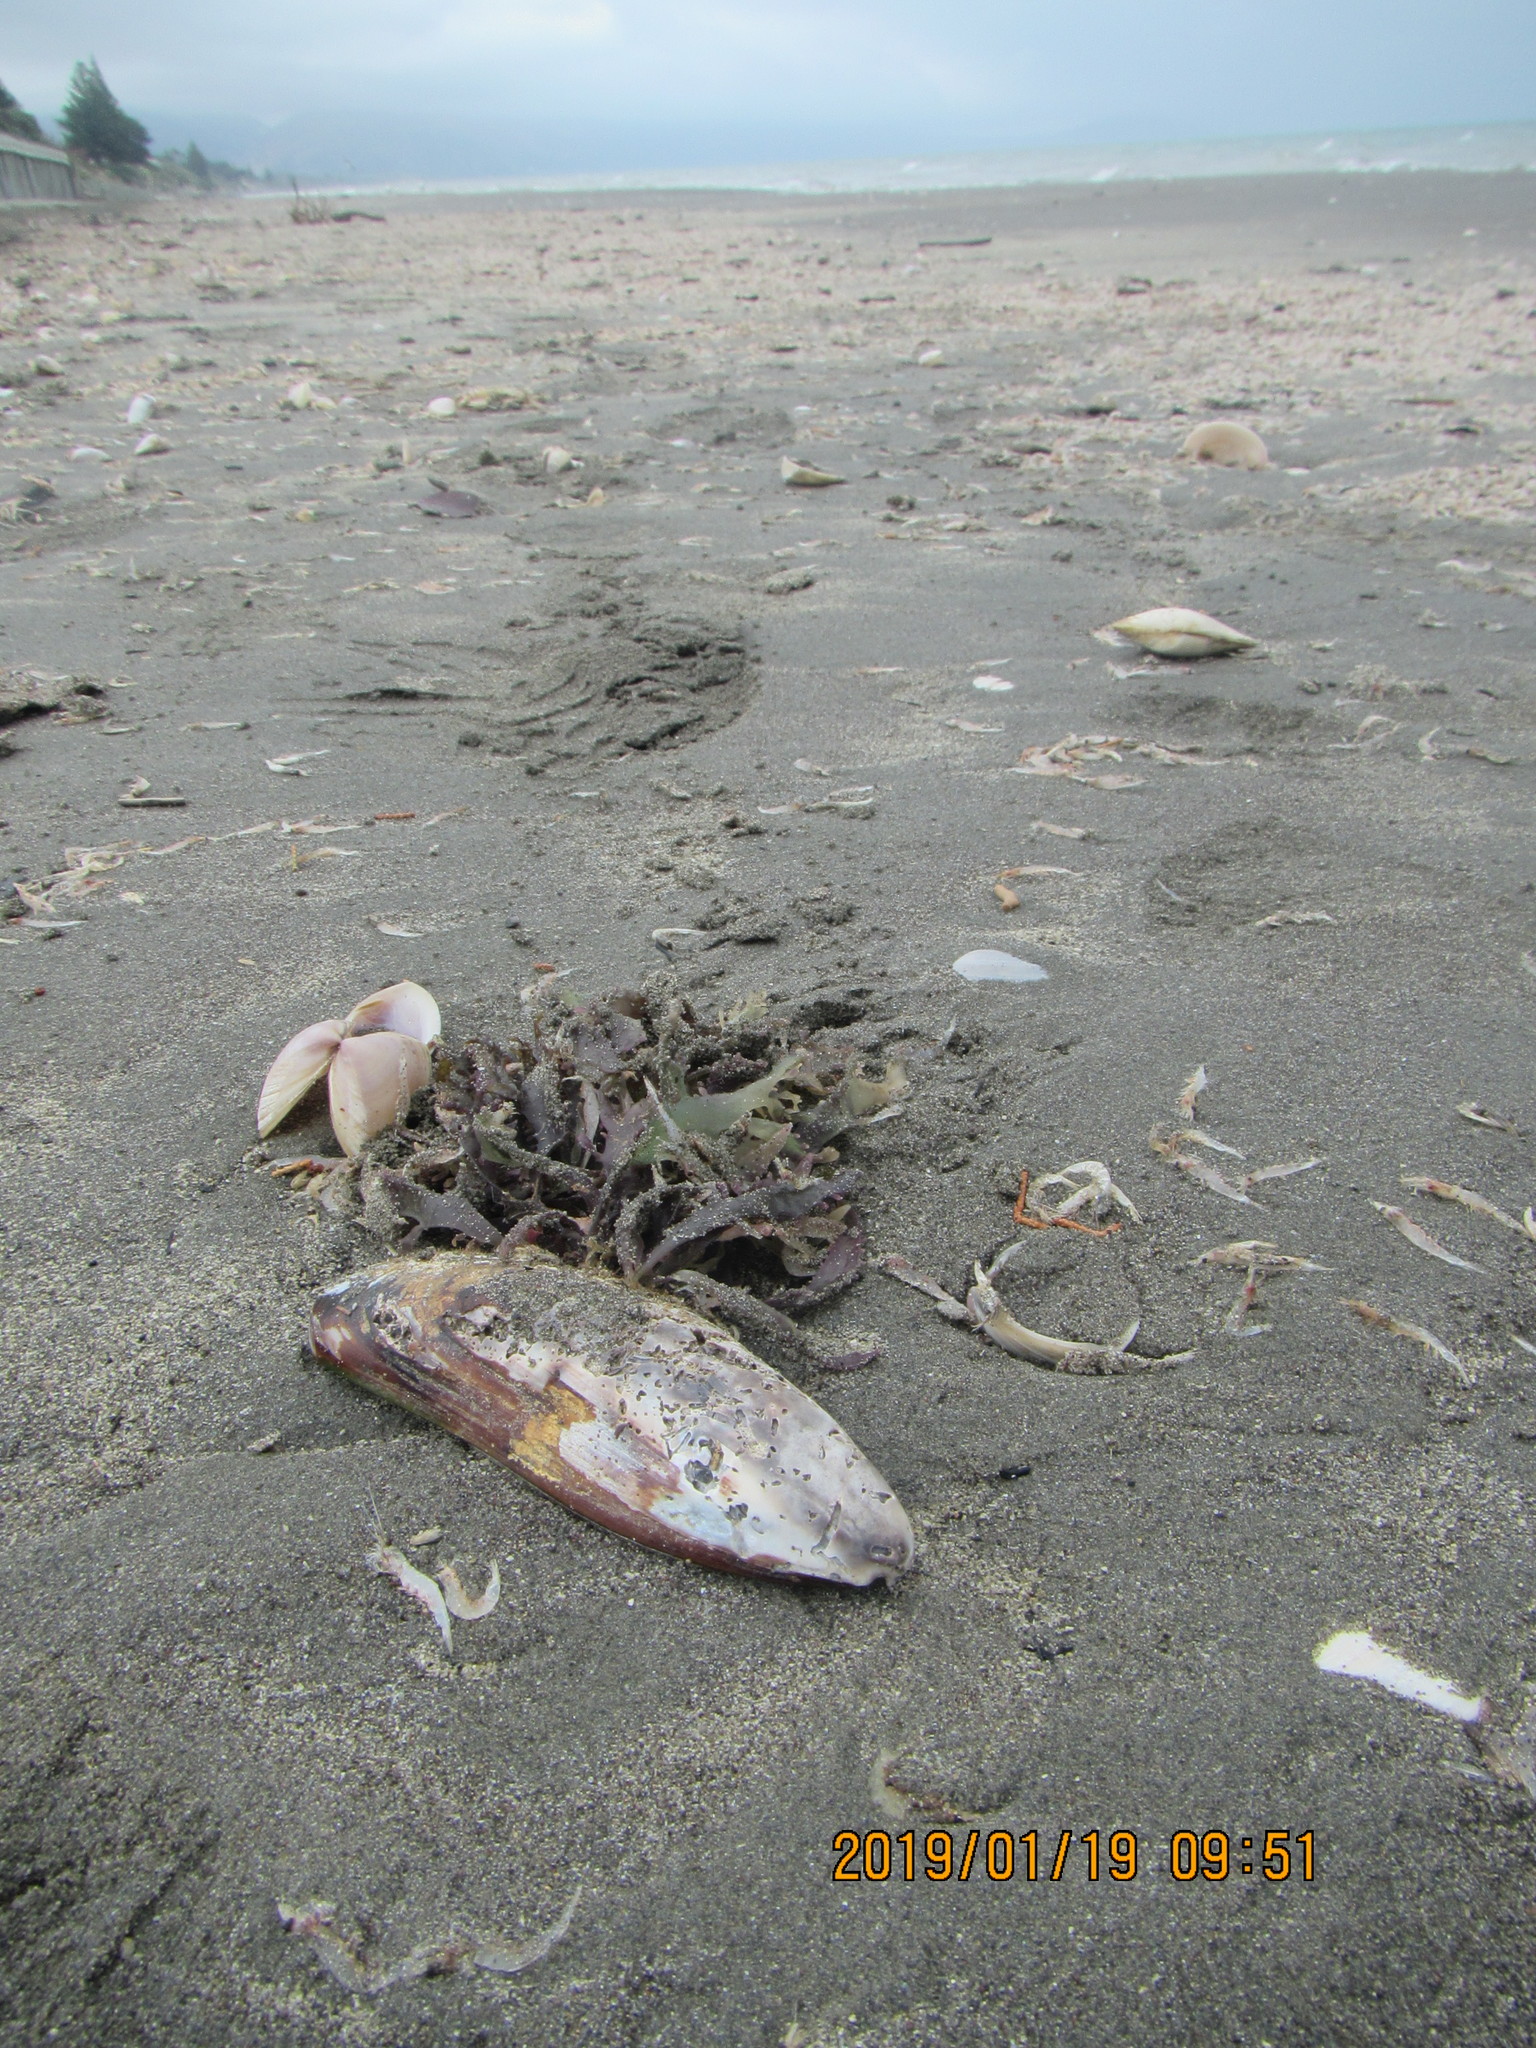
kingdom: Animalia
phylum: Mollusca
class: Bivalvia
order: Mytilida
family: Mytilidae
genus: Perna
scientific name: Perna canaliculus
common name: New zealand greenshelltm
